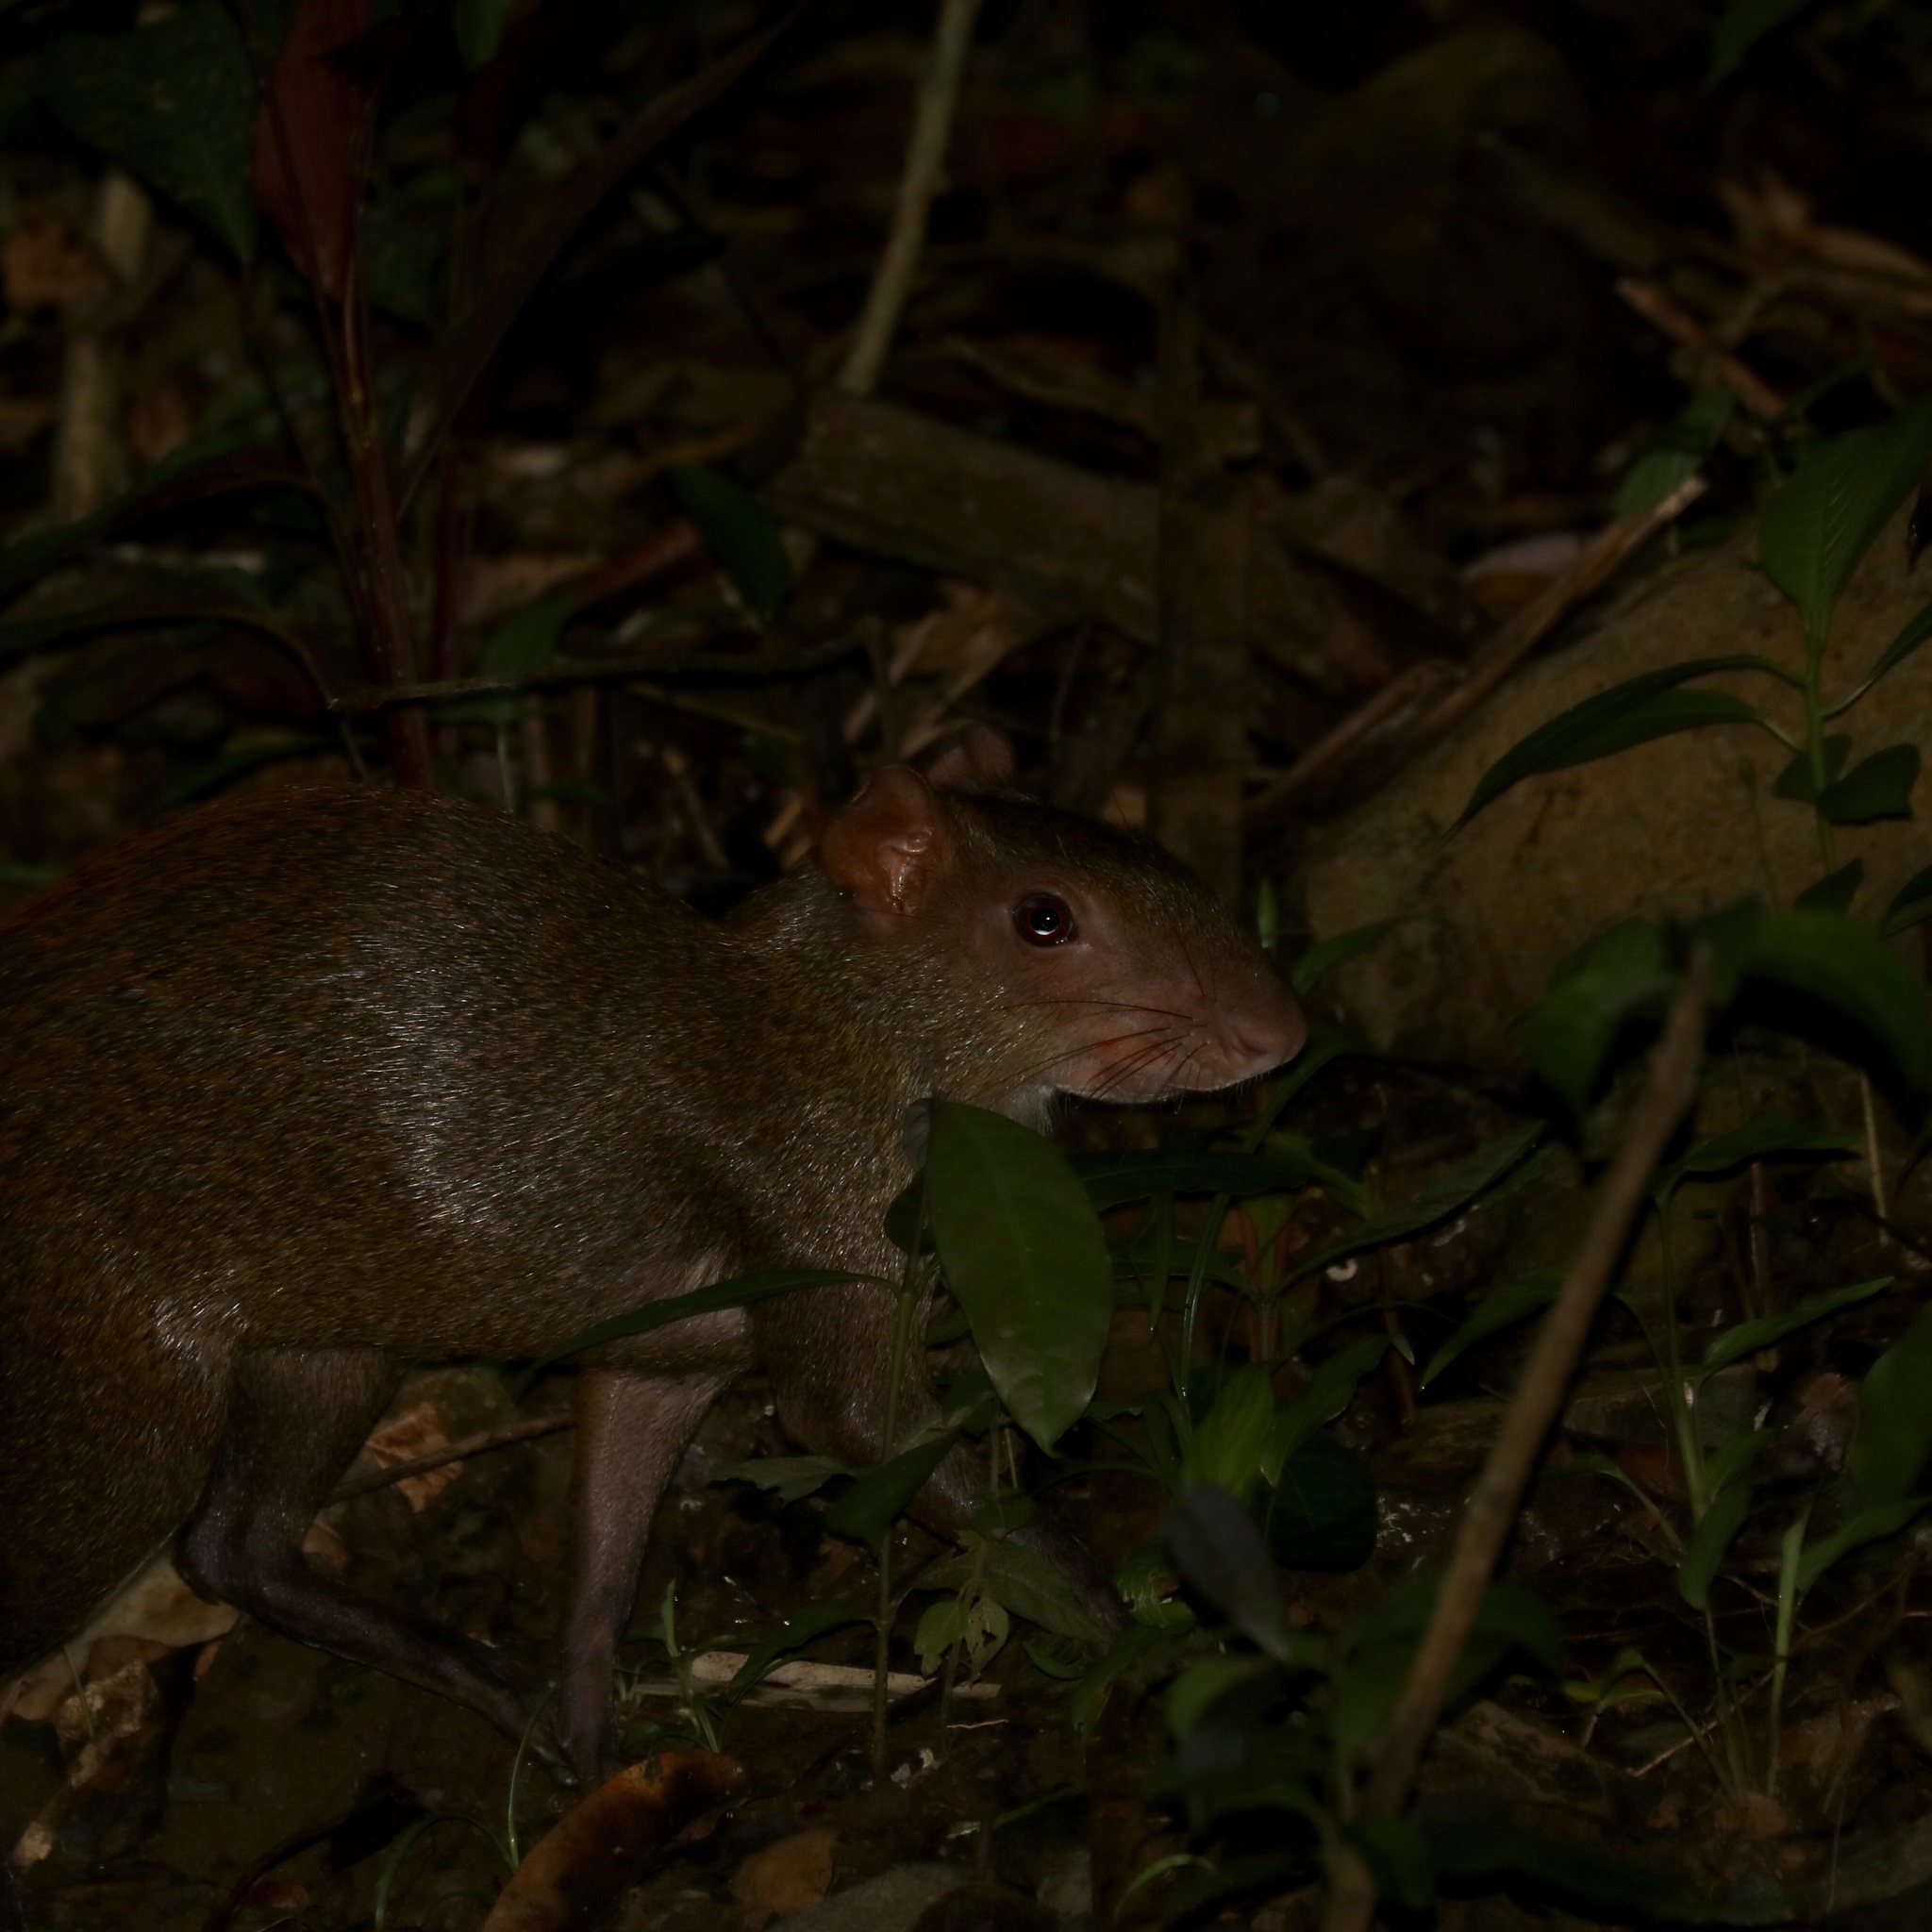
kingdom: Animalia
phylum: Chordata
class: Mammalia
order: Rodentia
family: Dasyproctidae
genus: Dasyprocta
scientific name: Dasyprocta punctata
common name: Central american agouti
